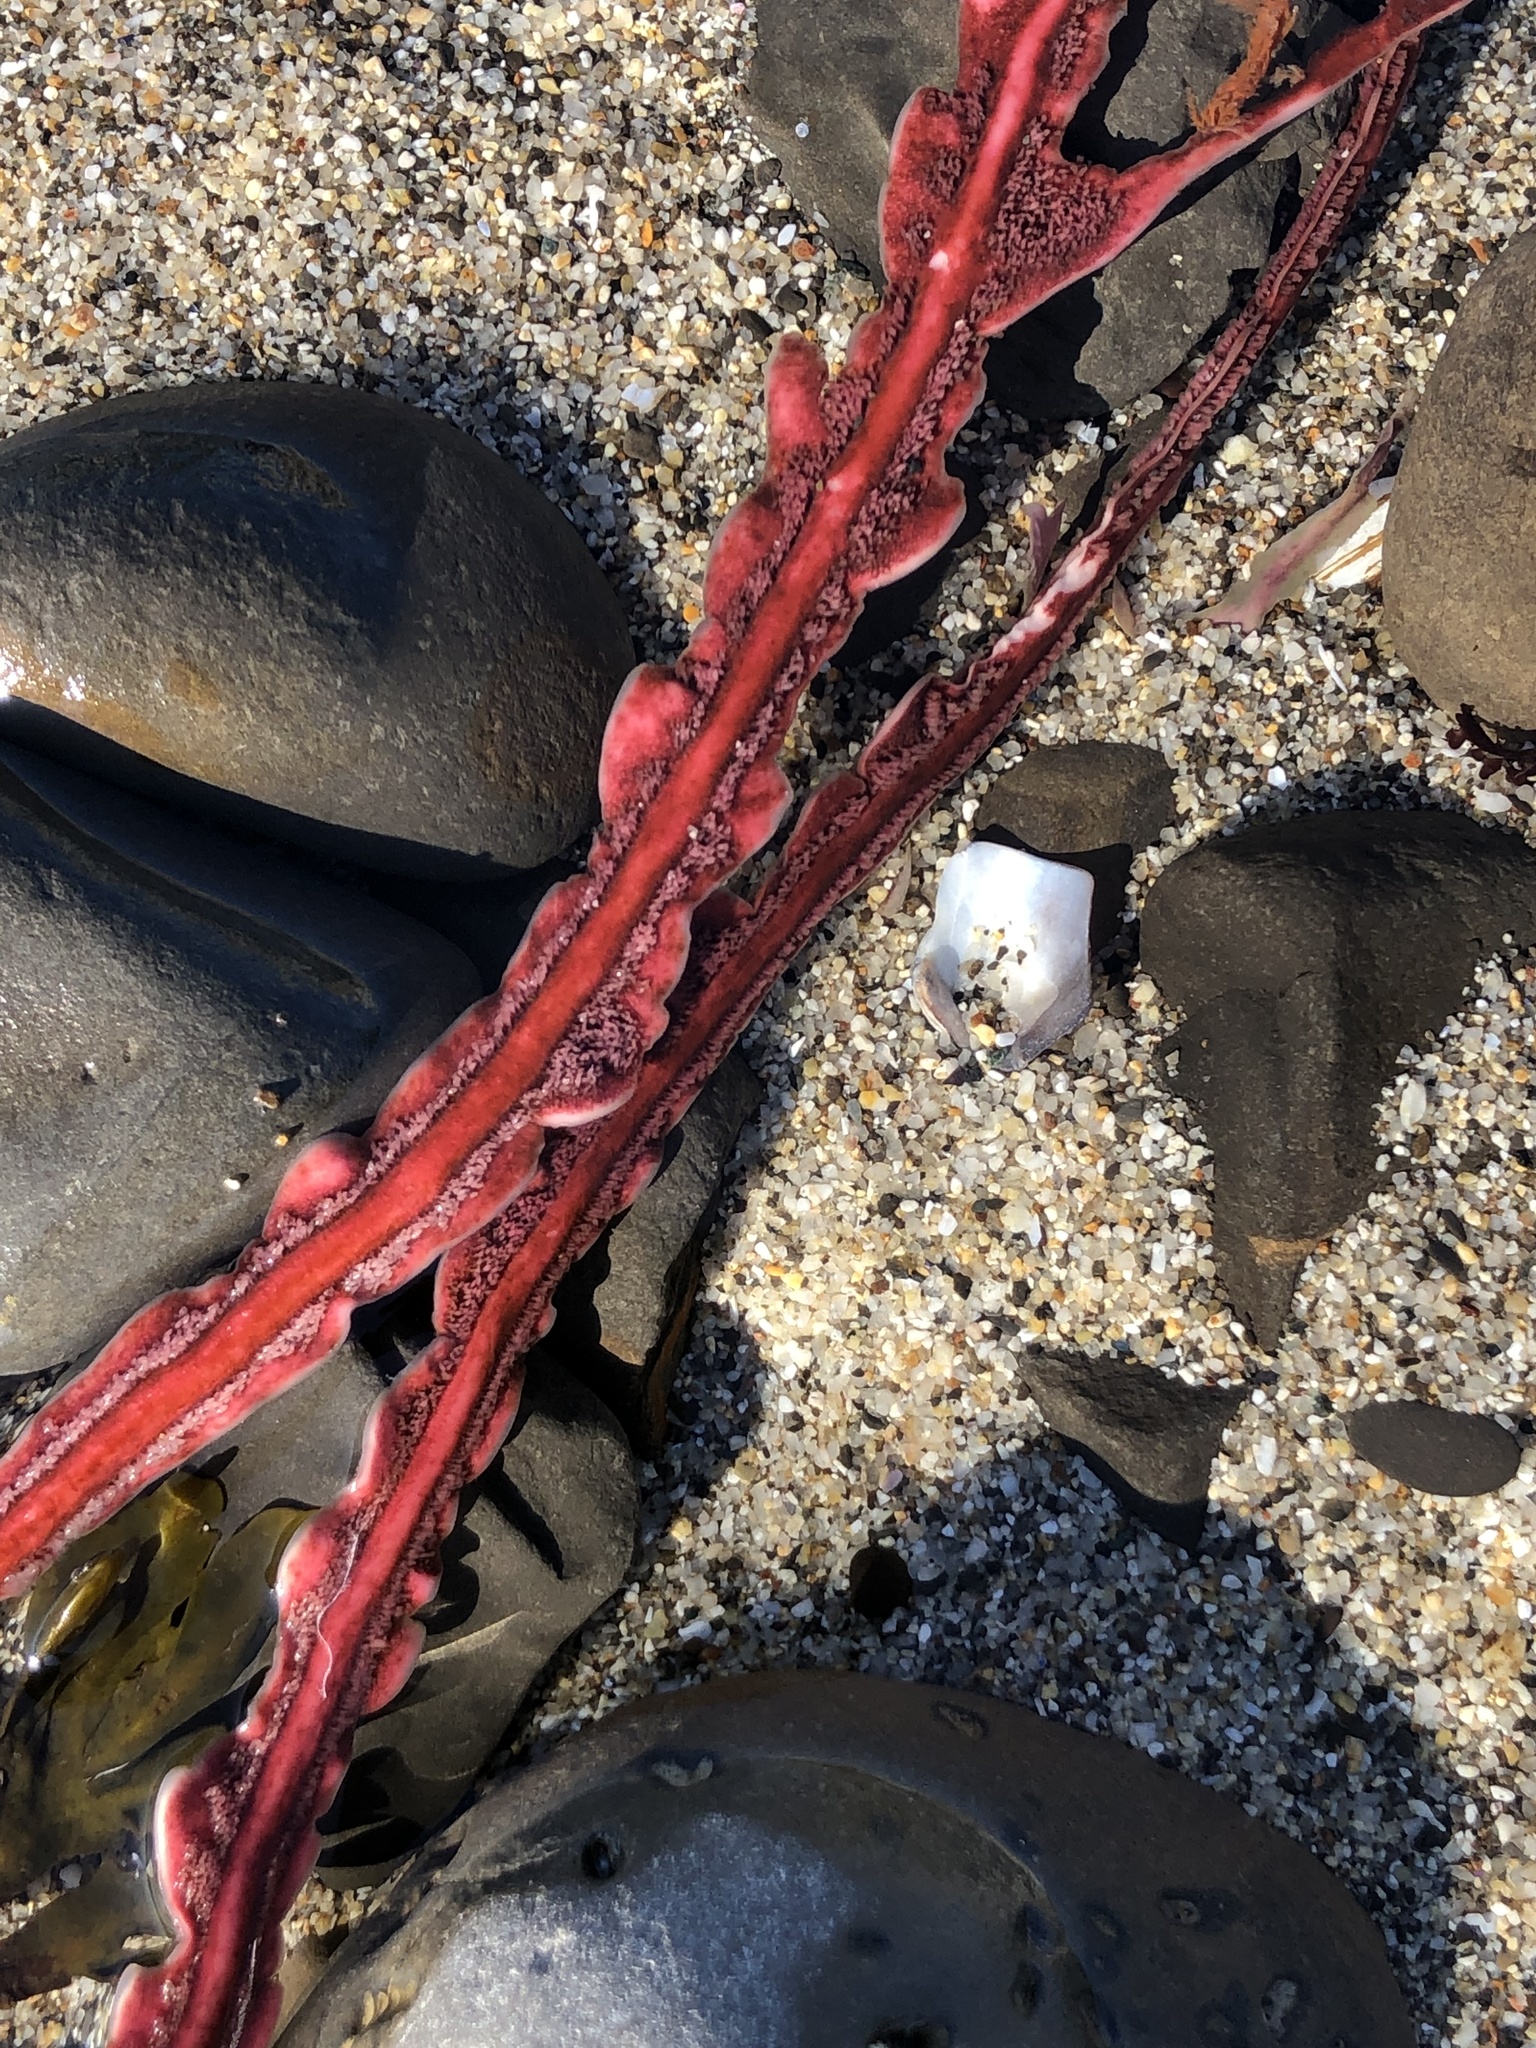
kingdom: Plantae
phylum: Rhodophyta
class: Florideophyceae
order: Gigartinales
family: Kallymeniaceae
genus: Erythrophyllum
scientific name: Erythrophyllum delesserioides
